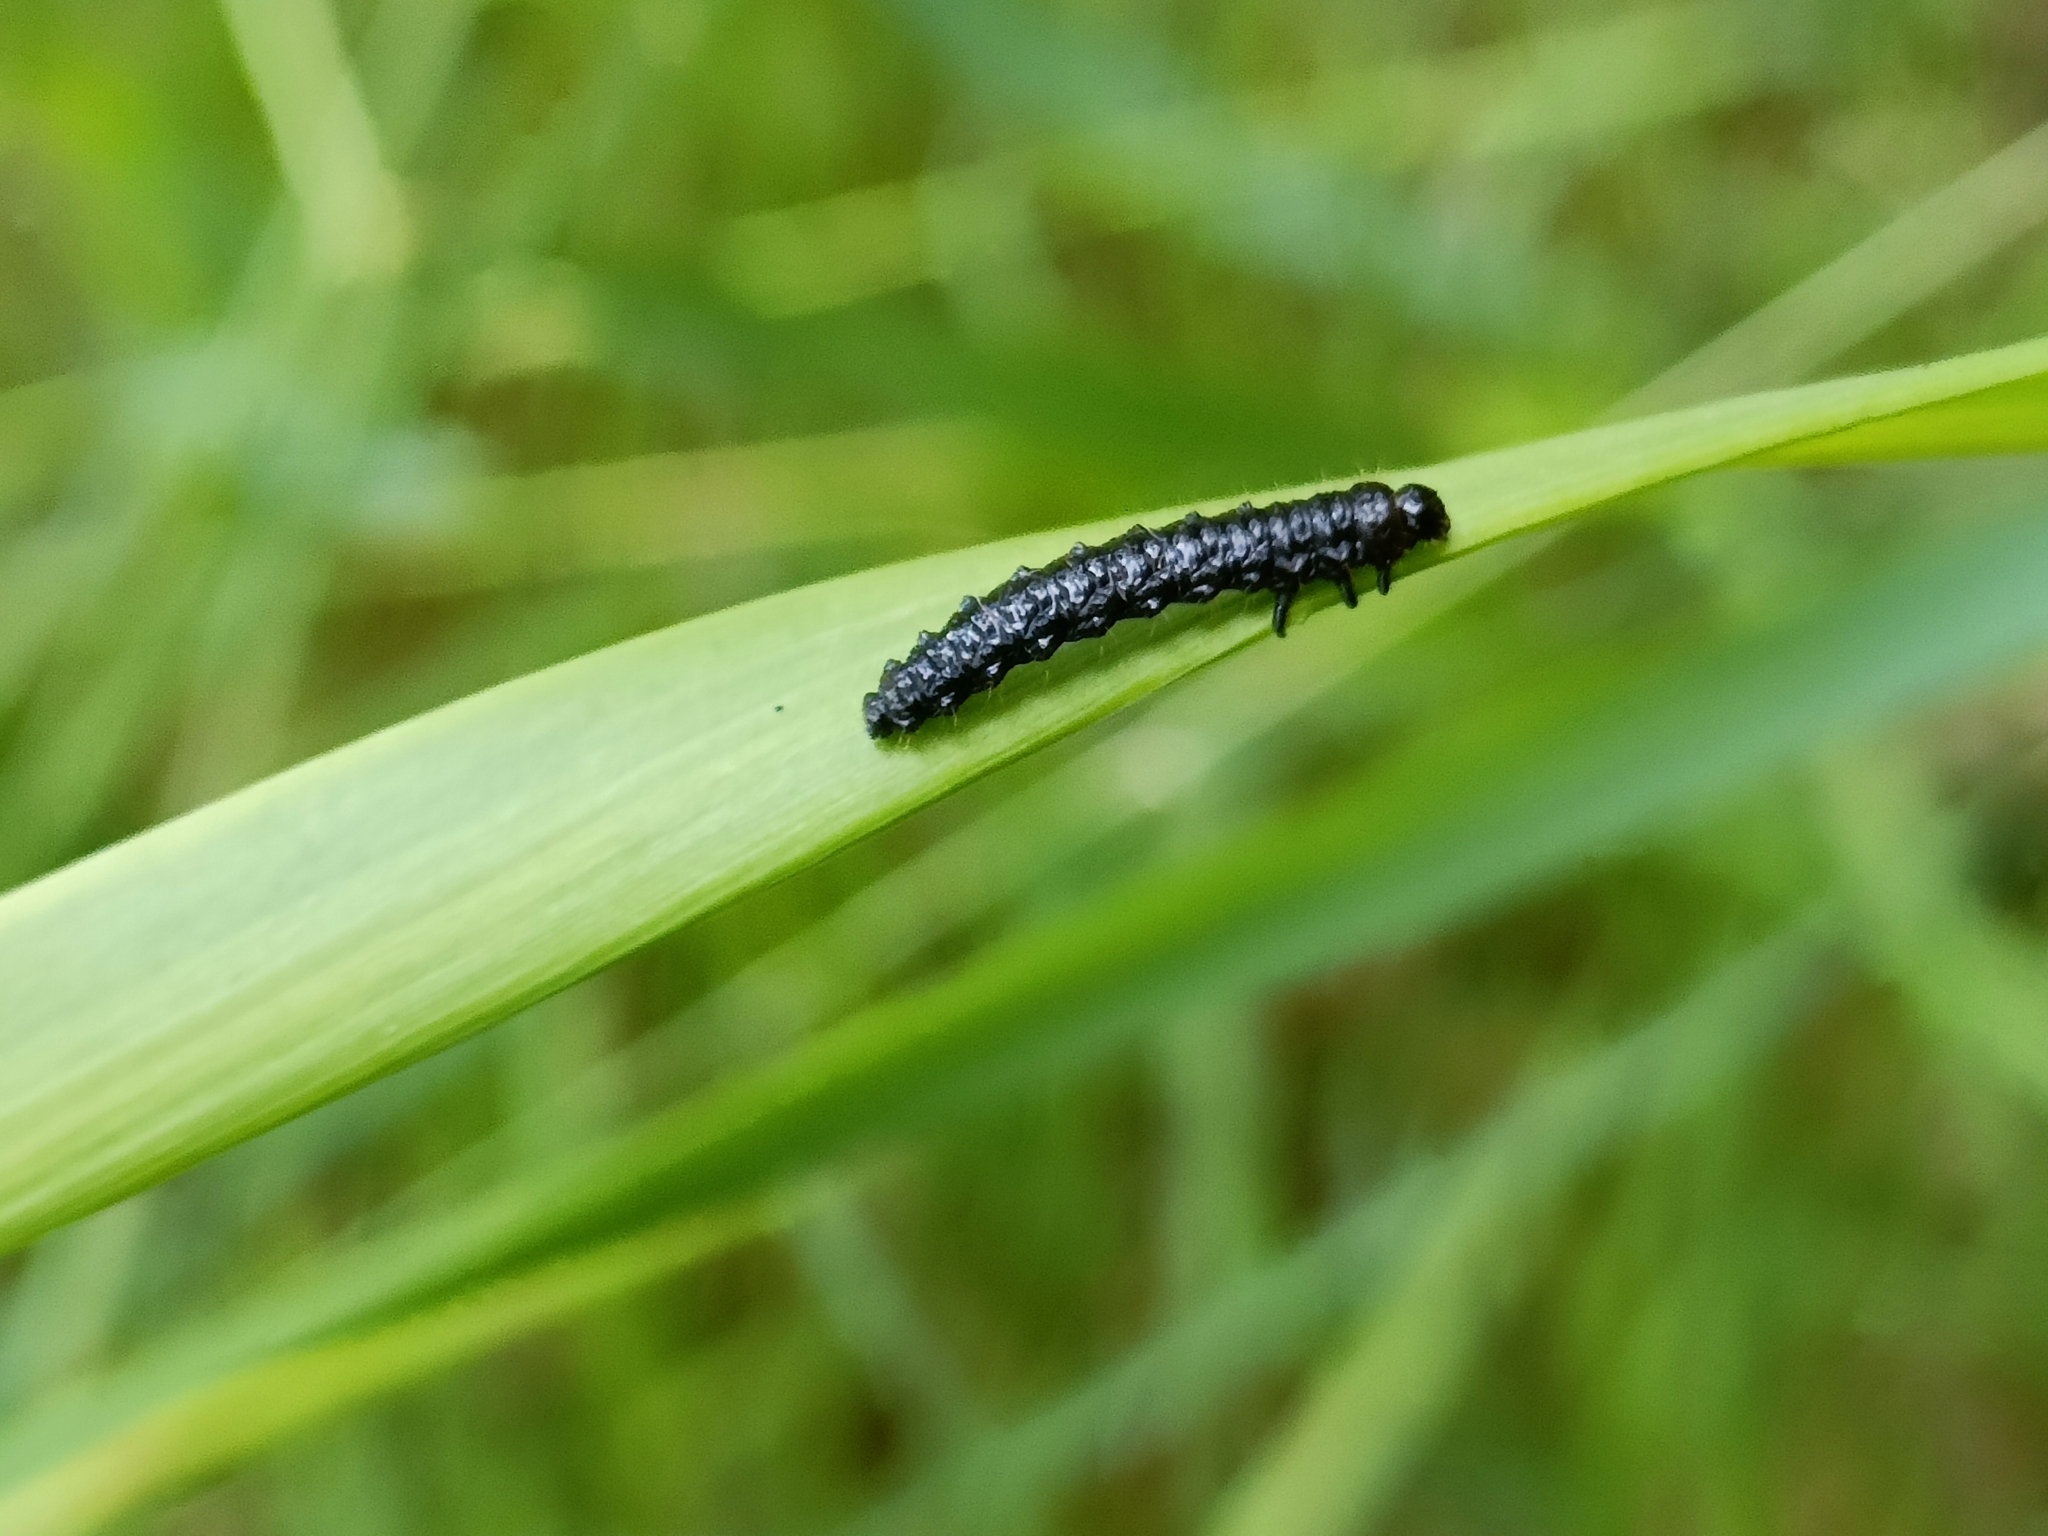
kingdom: Animalia
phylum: Arthropoda
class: Insecta
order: Coleoptera
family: Chrysomelidae
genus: Agelastica
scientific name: Agelastica alni
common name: Alder leaf beetle
